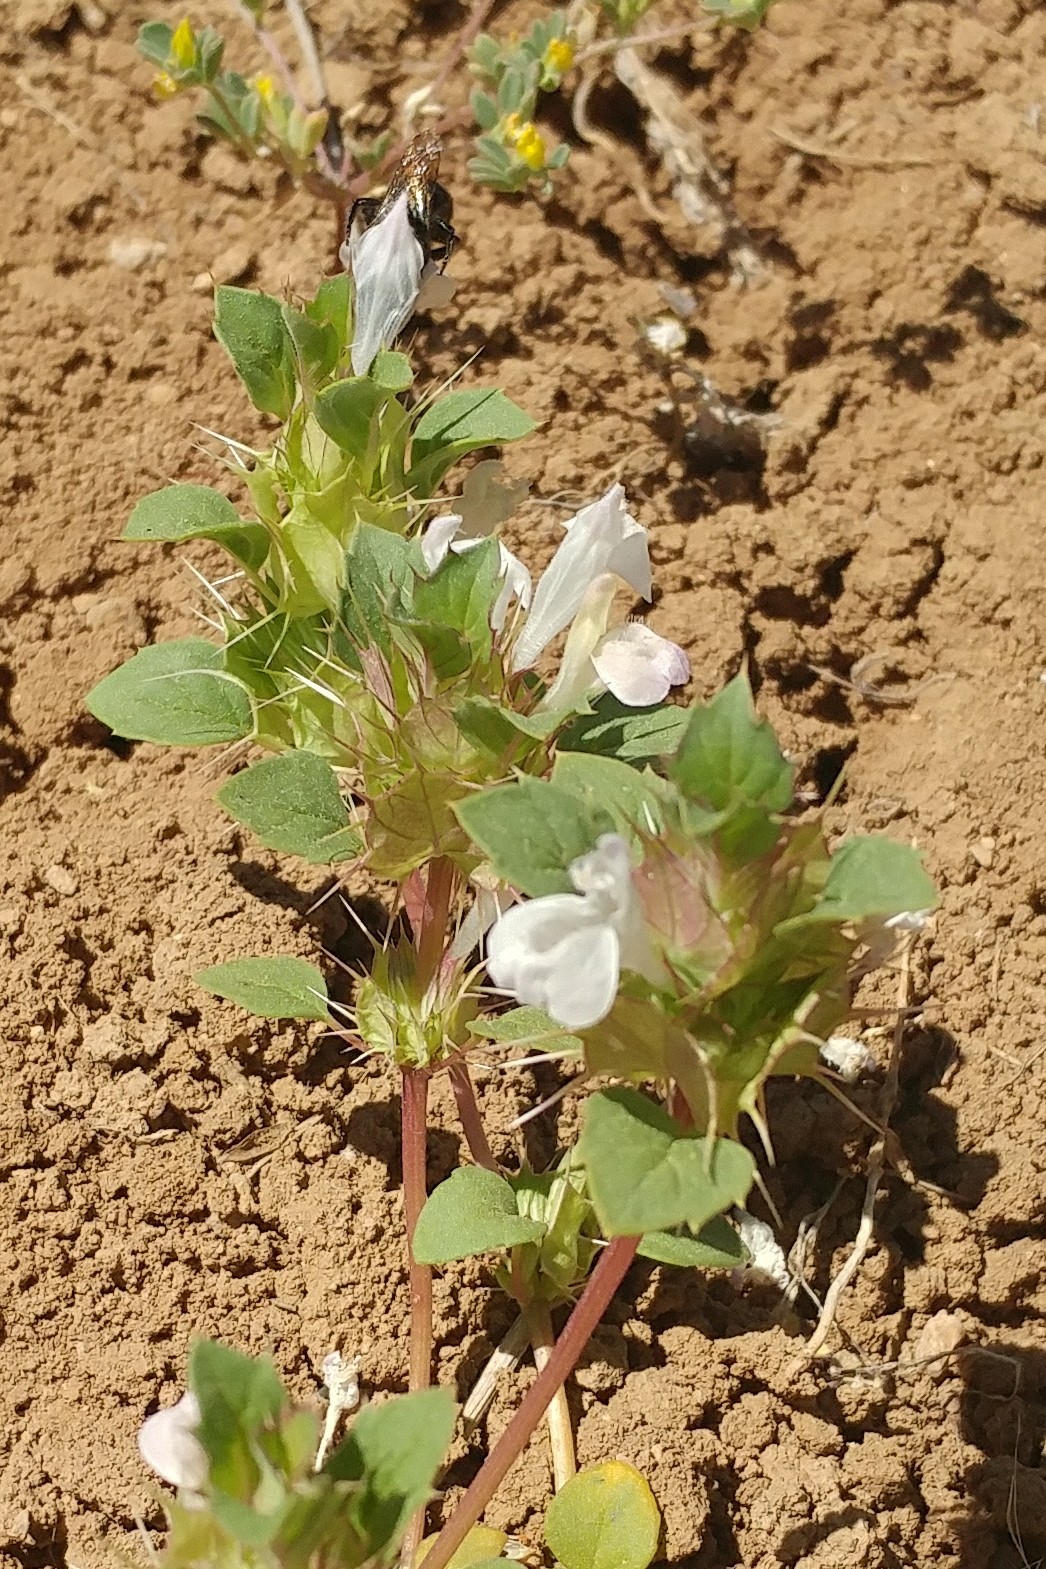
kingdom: Plantae
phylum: Tracheophyta
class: Magnoliopsida
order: Lamiales
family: Lamiaceae
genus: Acanthomintha
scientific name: Acanthomintha obovata
